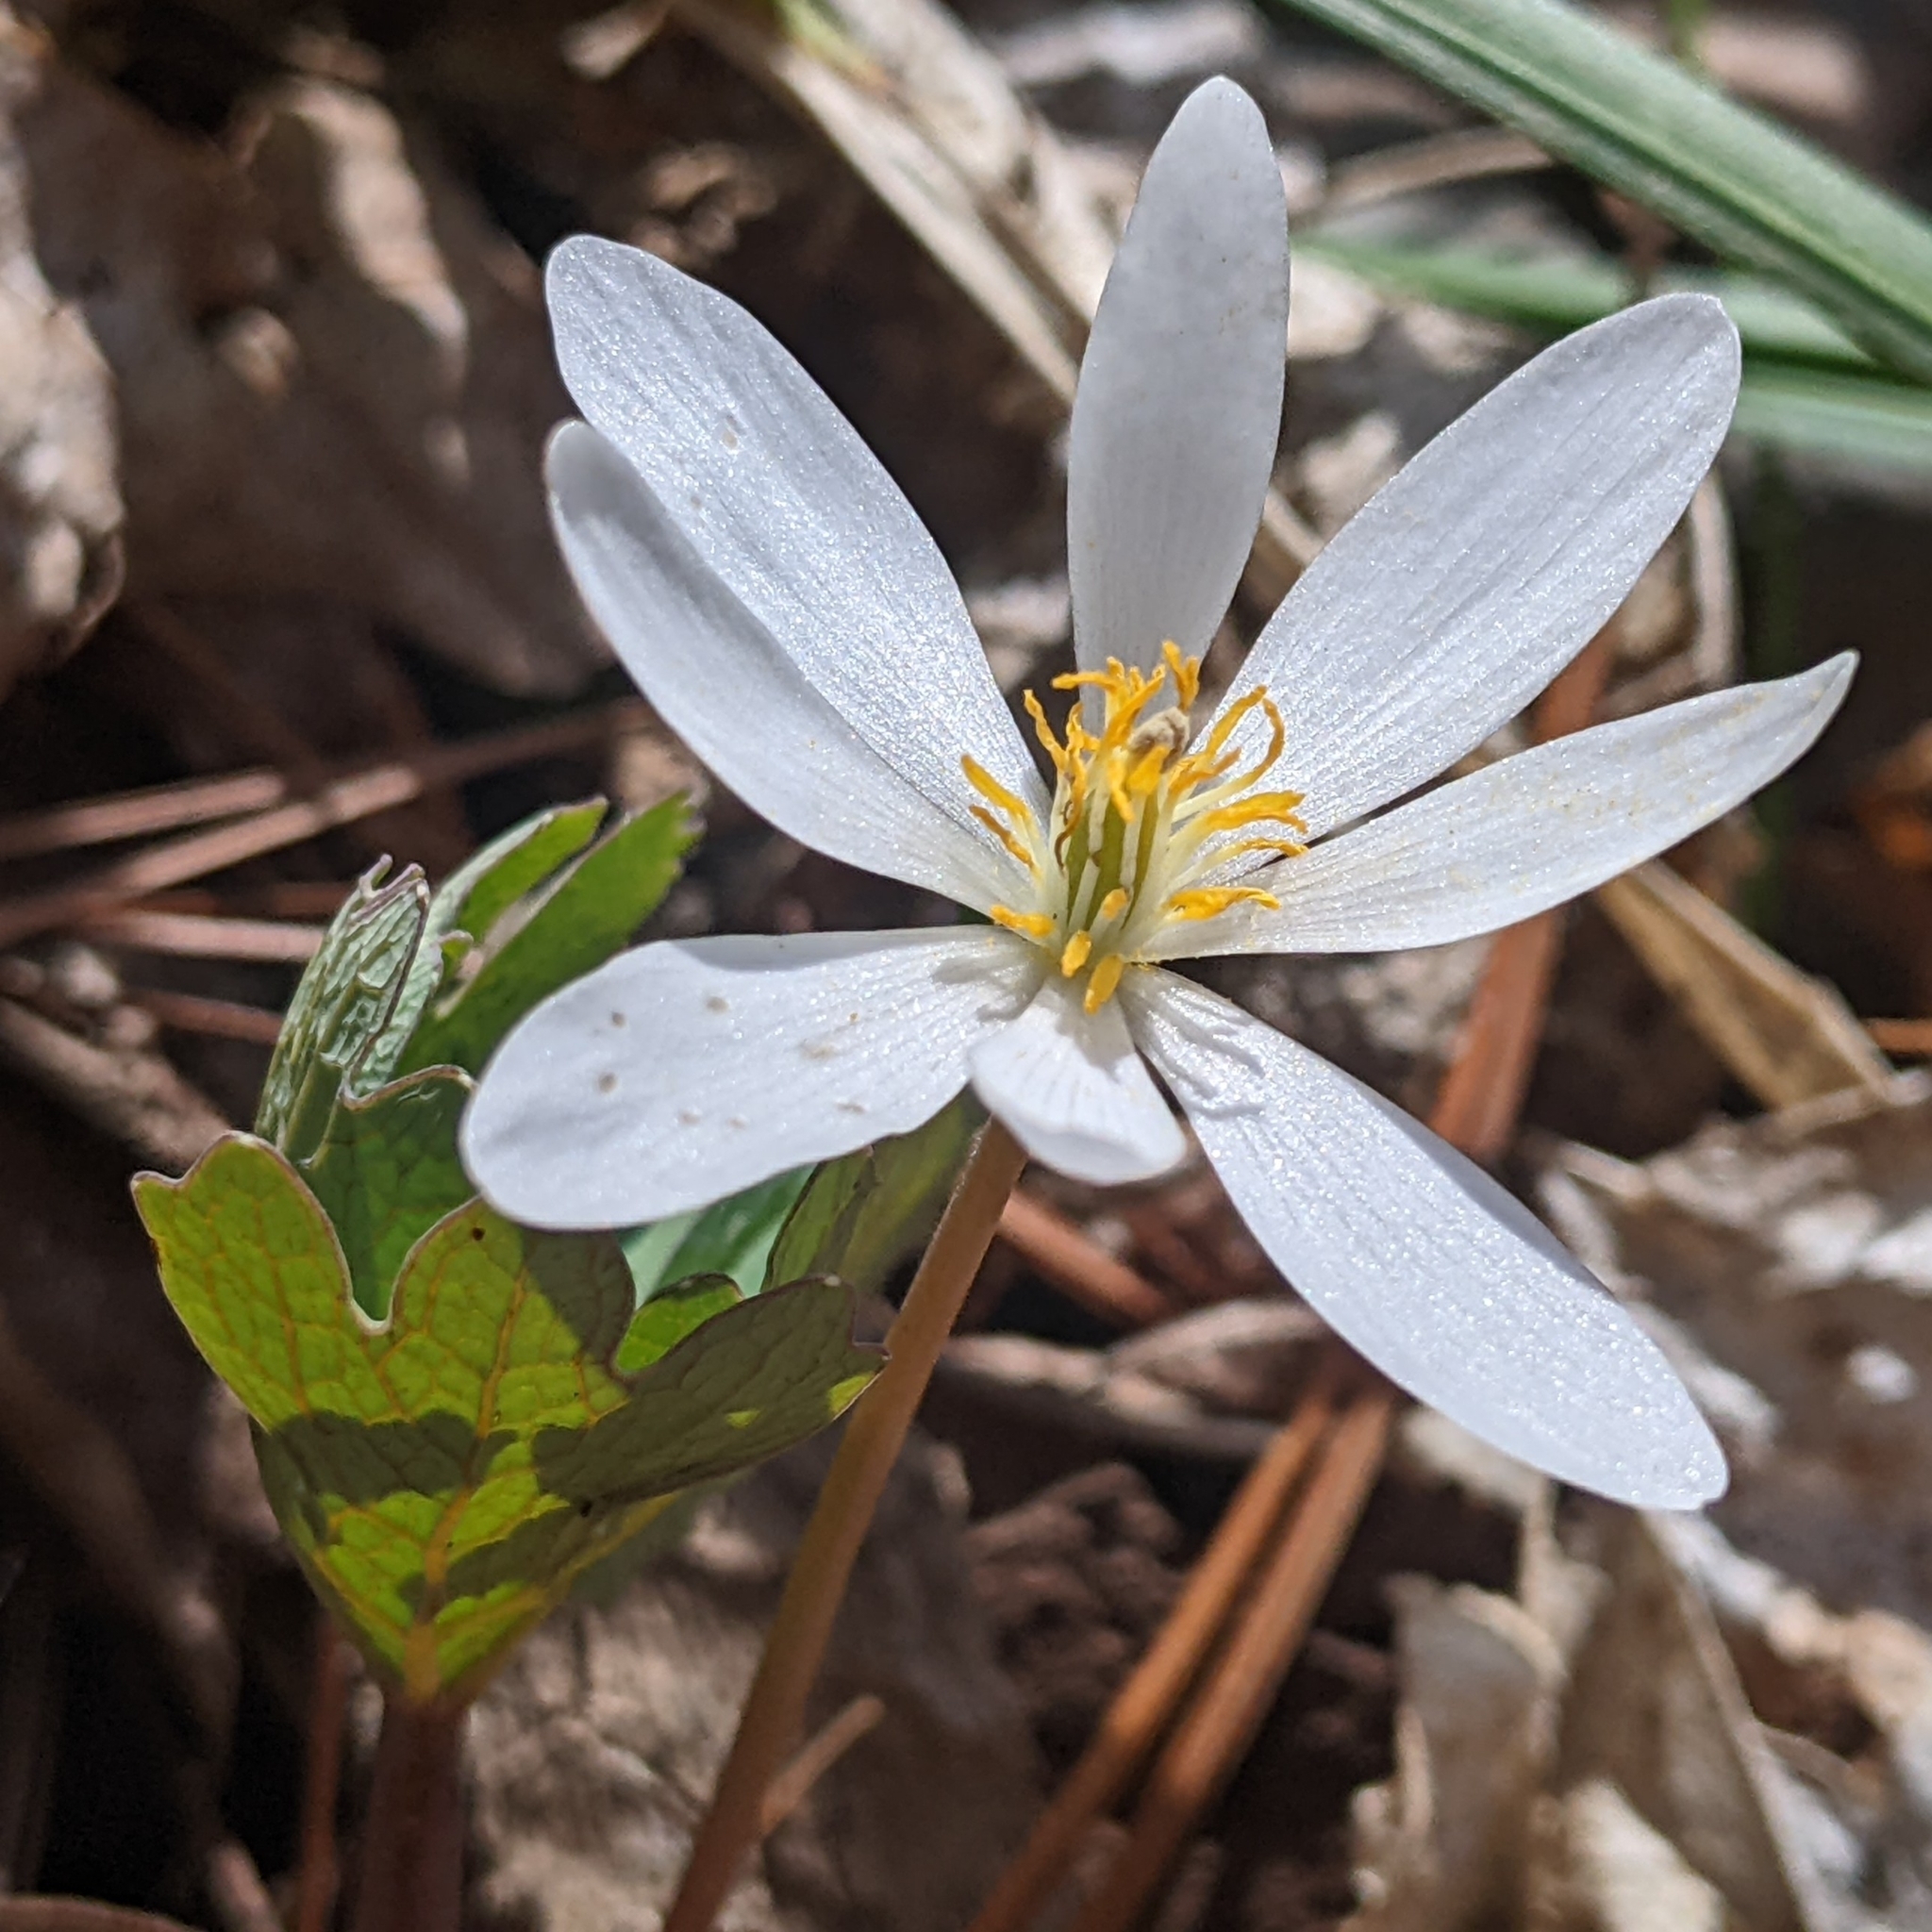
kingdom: Plantae
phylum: Tracheophyta
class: Magnoliopsida
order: Ranunculales
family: Papaveraceae
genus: Sanguinaria
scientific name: Sanguinaria canadensis
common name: Bloodroot
